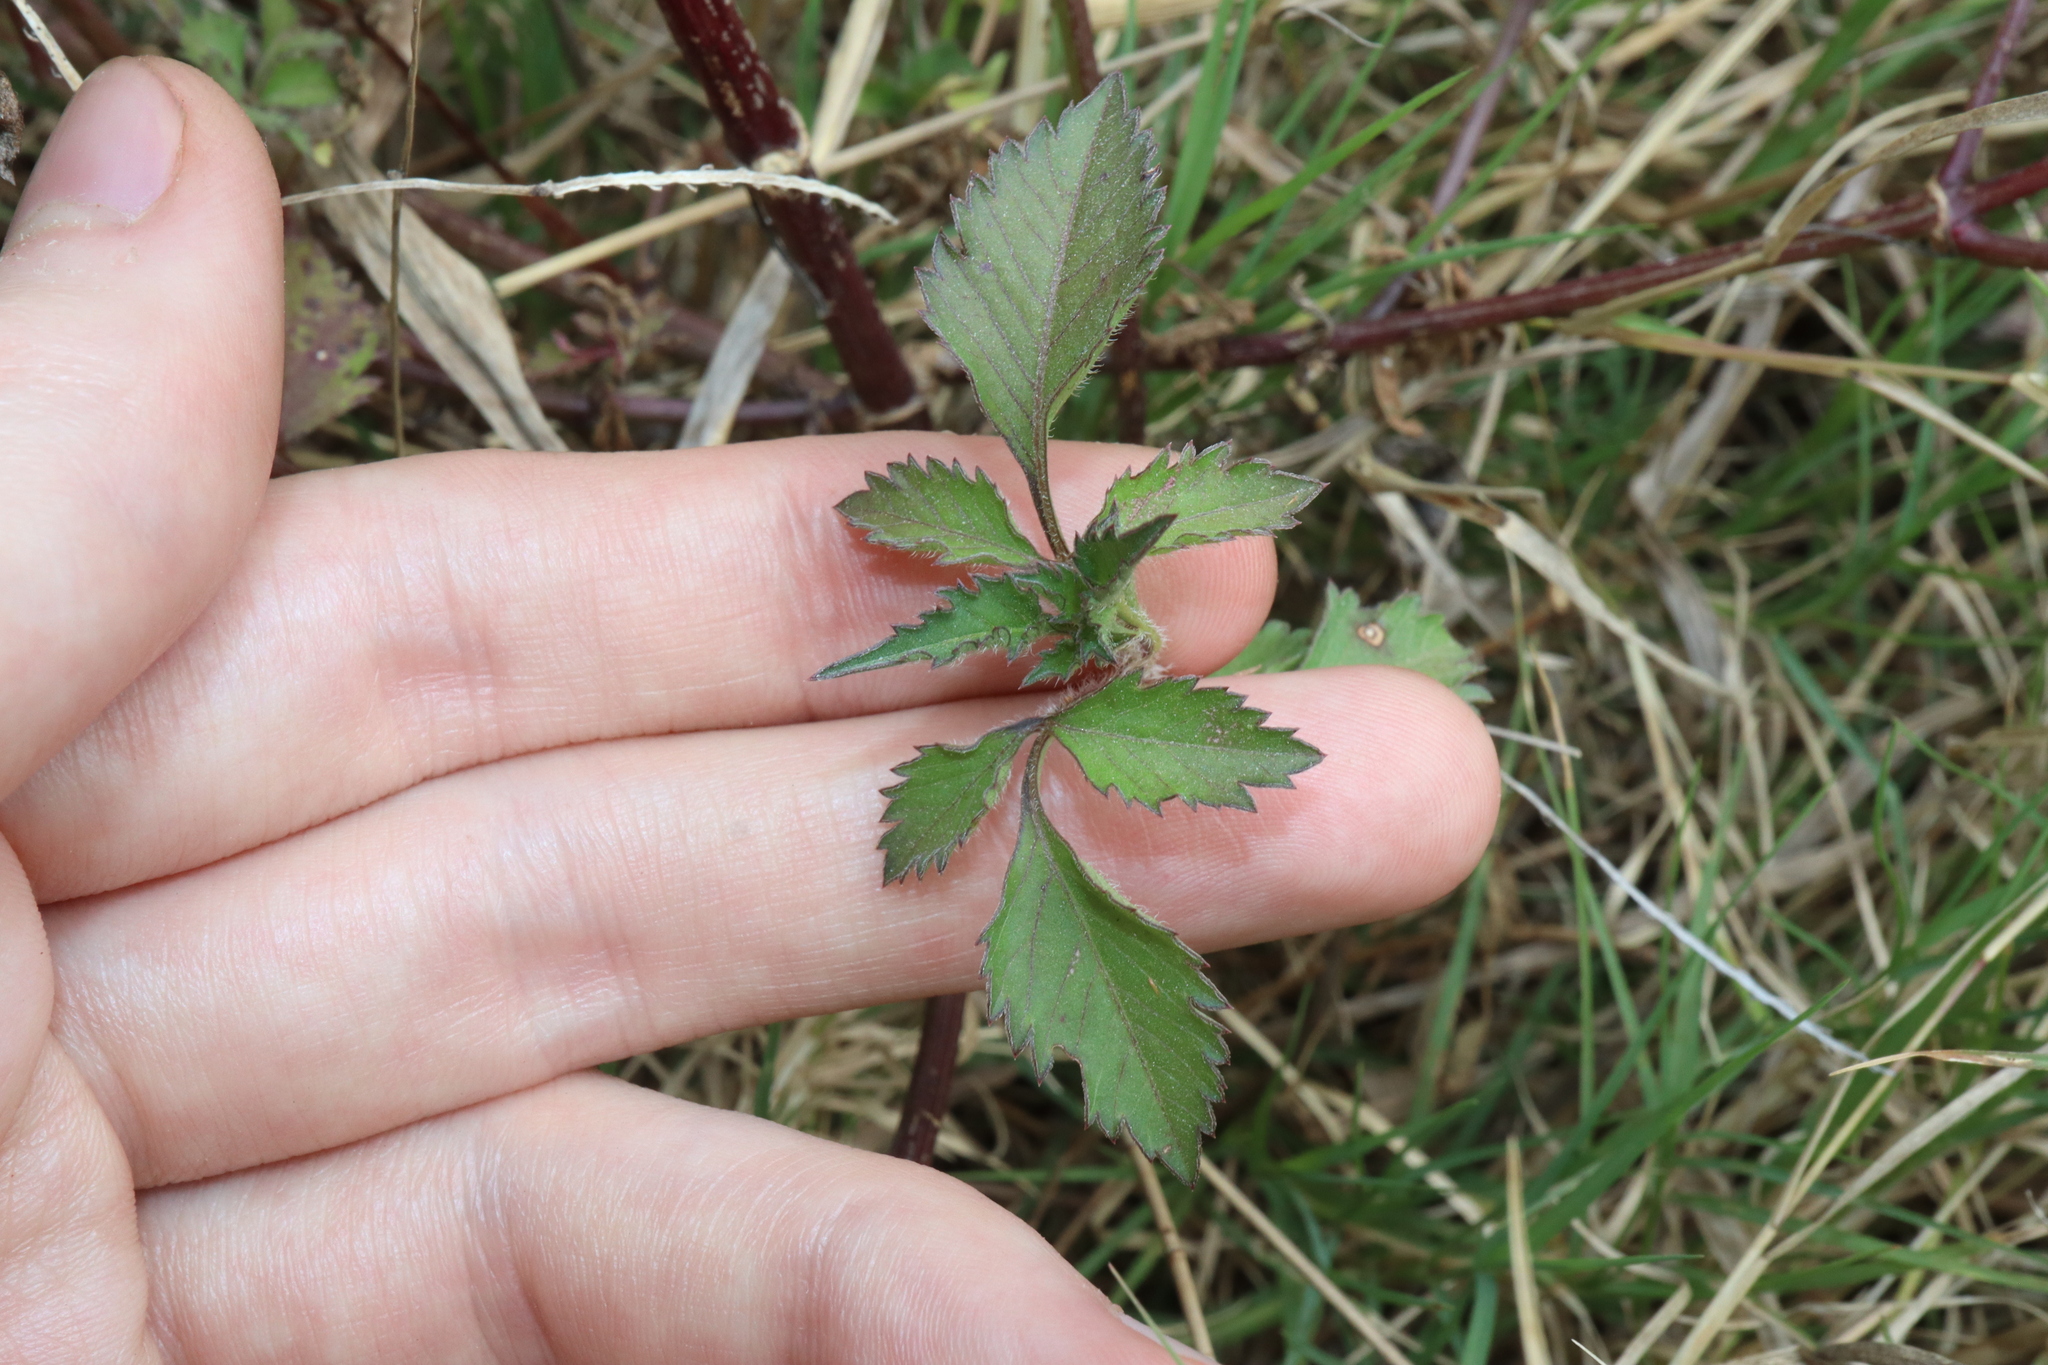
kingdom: Plantae
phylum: Tracheophyta
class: Magnoliopsida
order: Asterales
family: Asteraceae
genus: Bidens
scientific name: Bidens pilosa
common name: Black-jack
